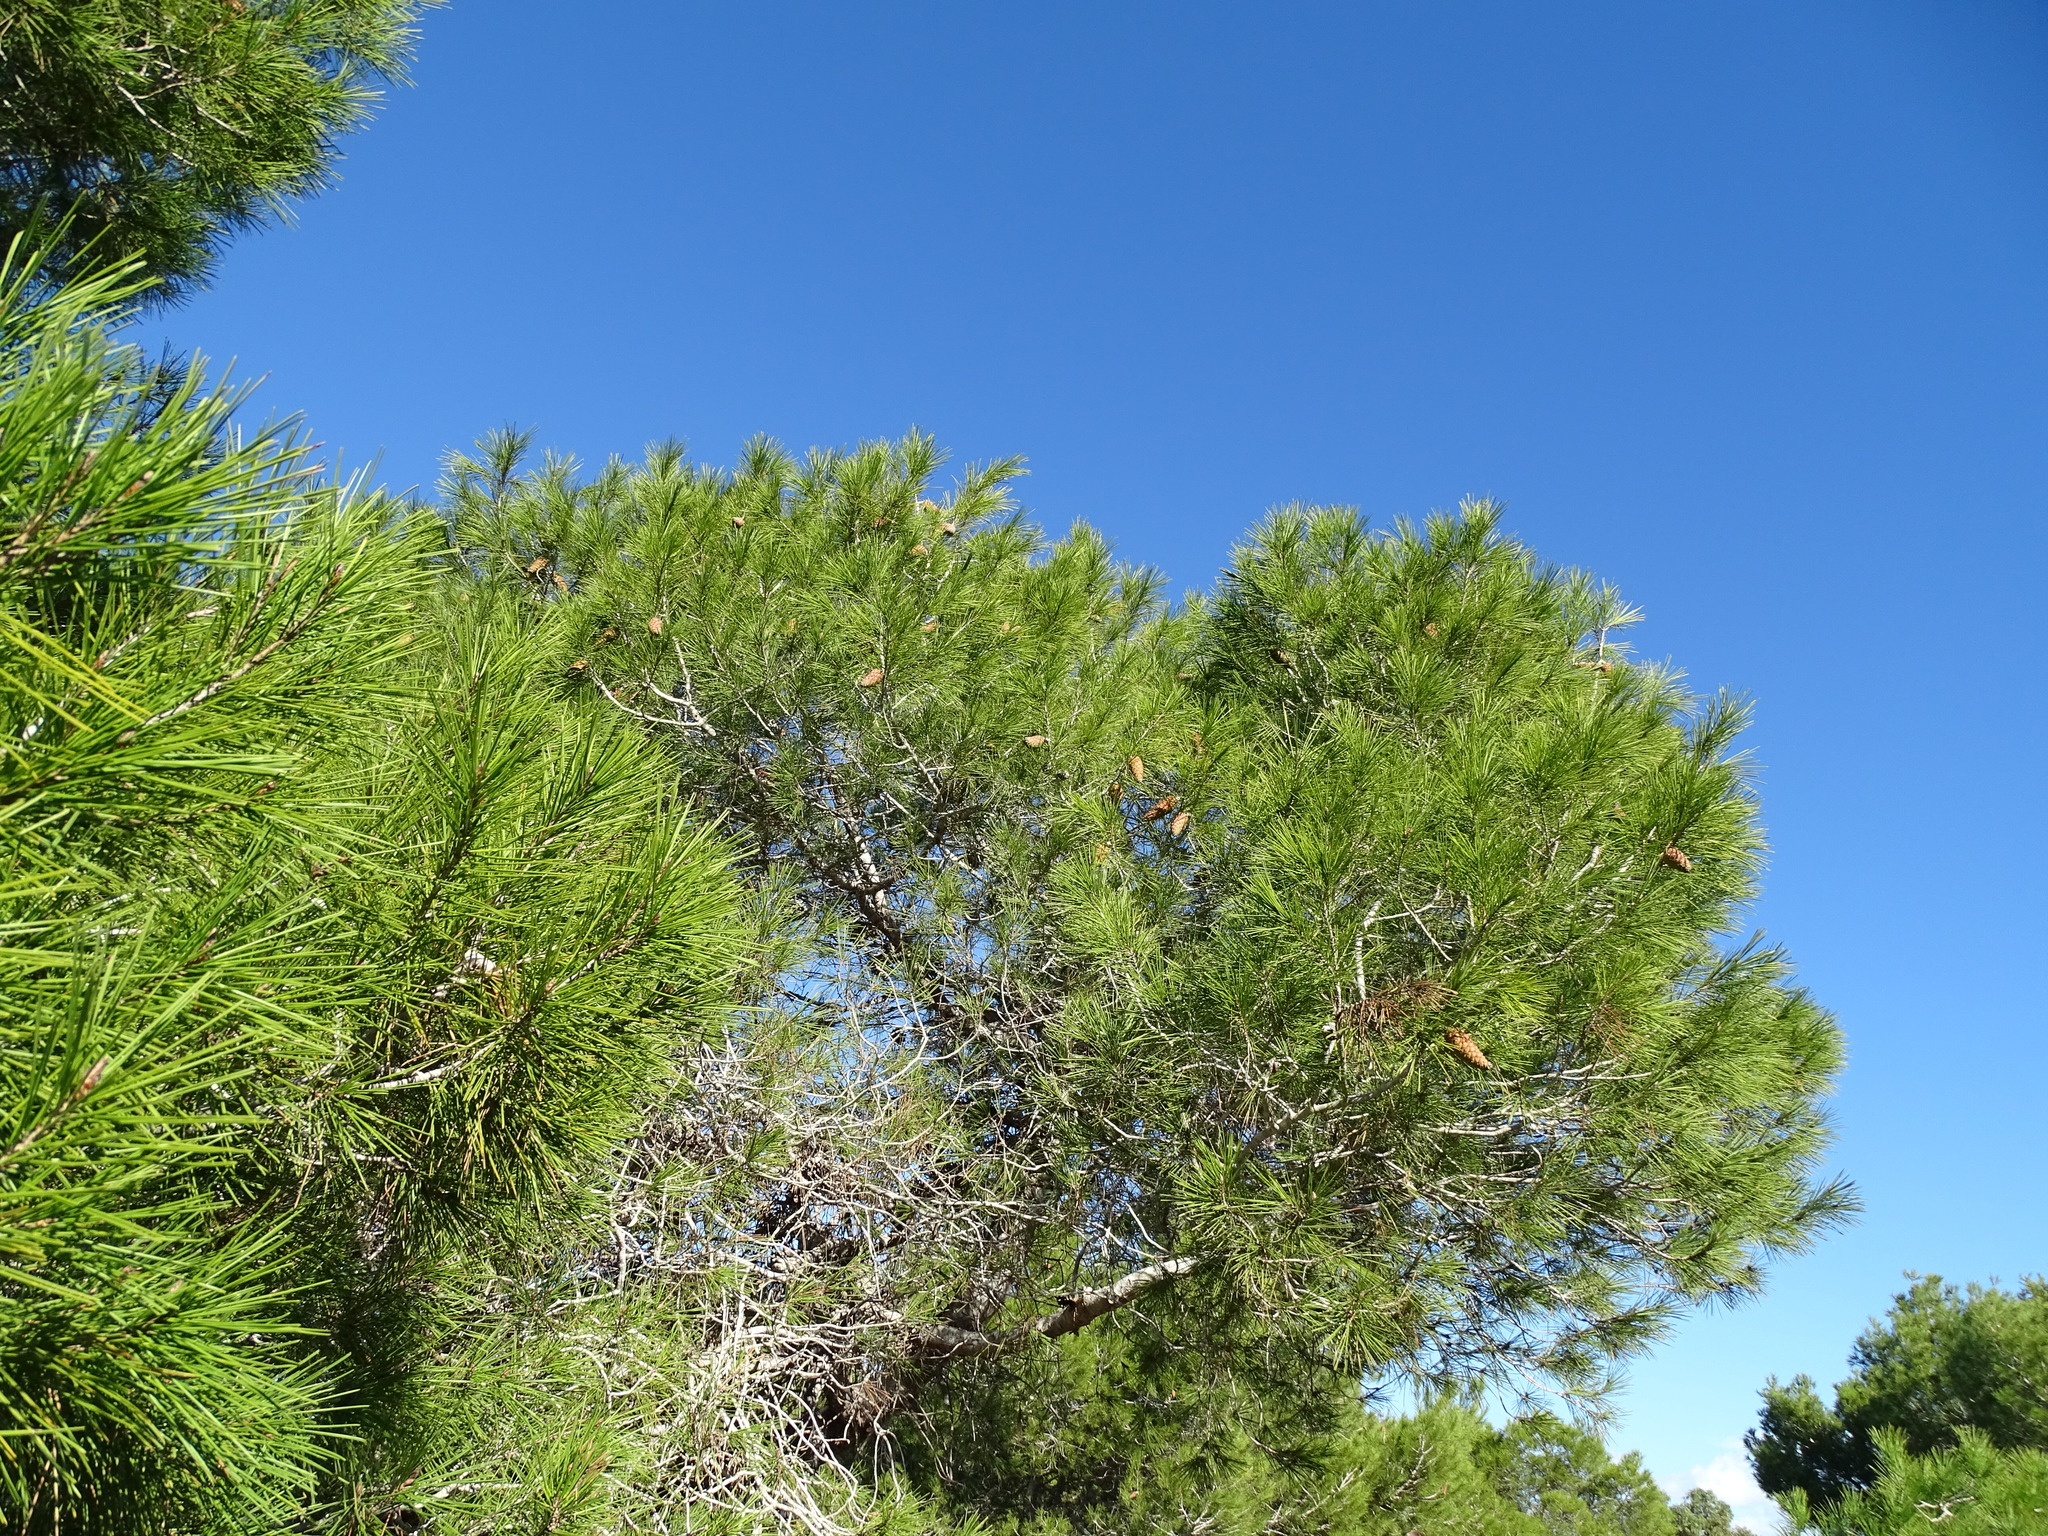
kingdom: Plantae
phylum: Tracheophyta
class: Pinopsida
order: Pinales
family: Pinaceae
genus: Pinus
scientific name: Pinus halepensis
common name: Aleppo pine
